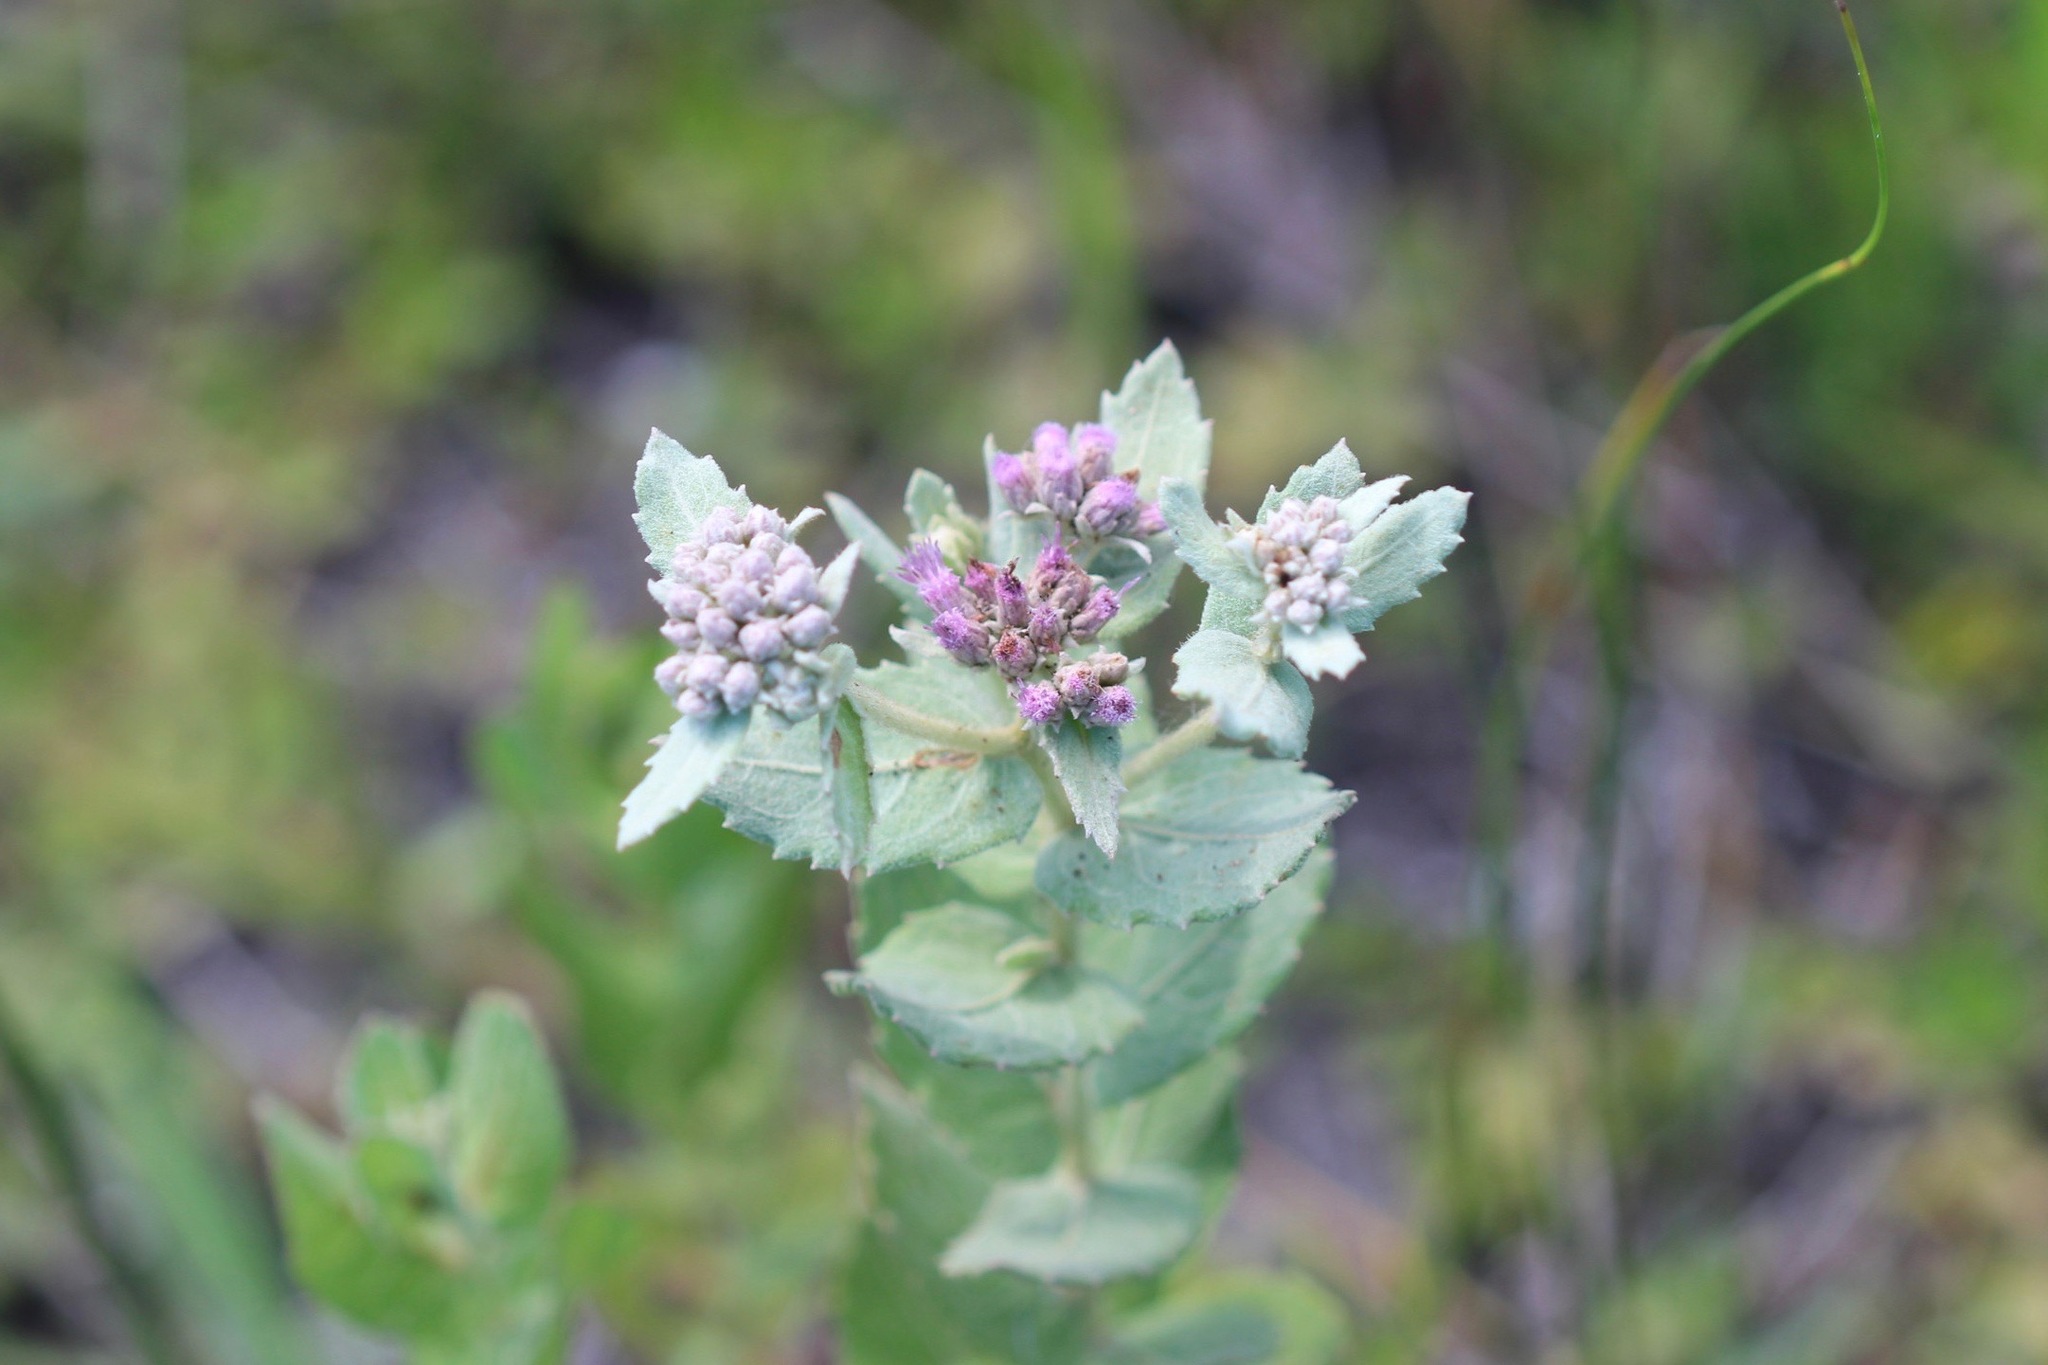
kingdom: Plantae
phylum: Tracheophyta
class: Magnoliopsida
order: Asterales
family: Asteraceae
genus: Pluchea
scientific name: Pluchea baccharis
